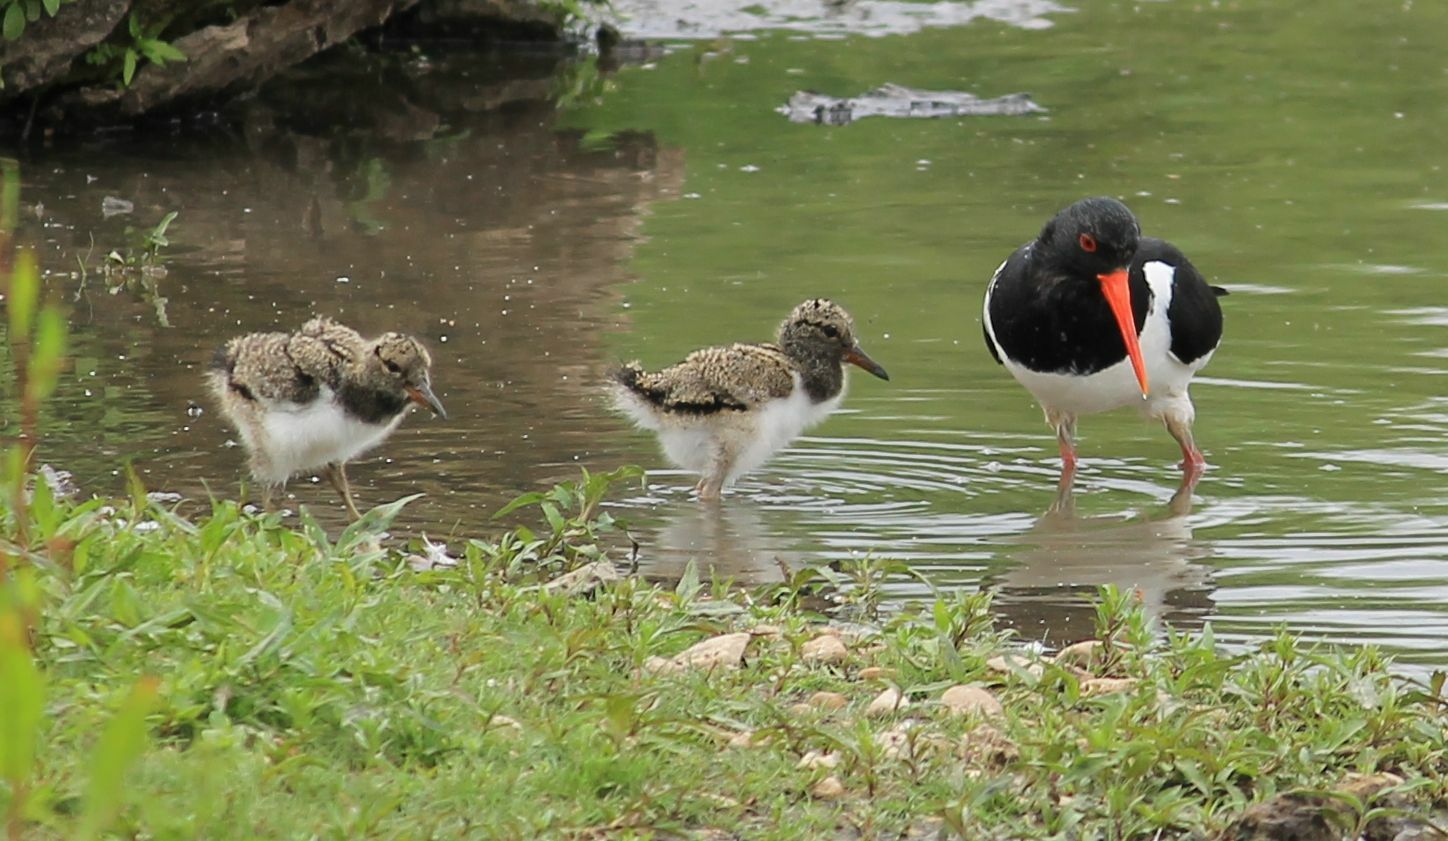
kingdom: Animalia
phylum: Chordata
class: Aves
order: Charadriiformes
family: Haematopodidae
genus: Haematopus
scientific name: Haematopus ostralegus
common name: Eurasian oystercatcher
